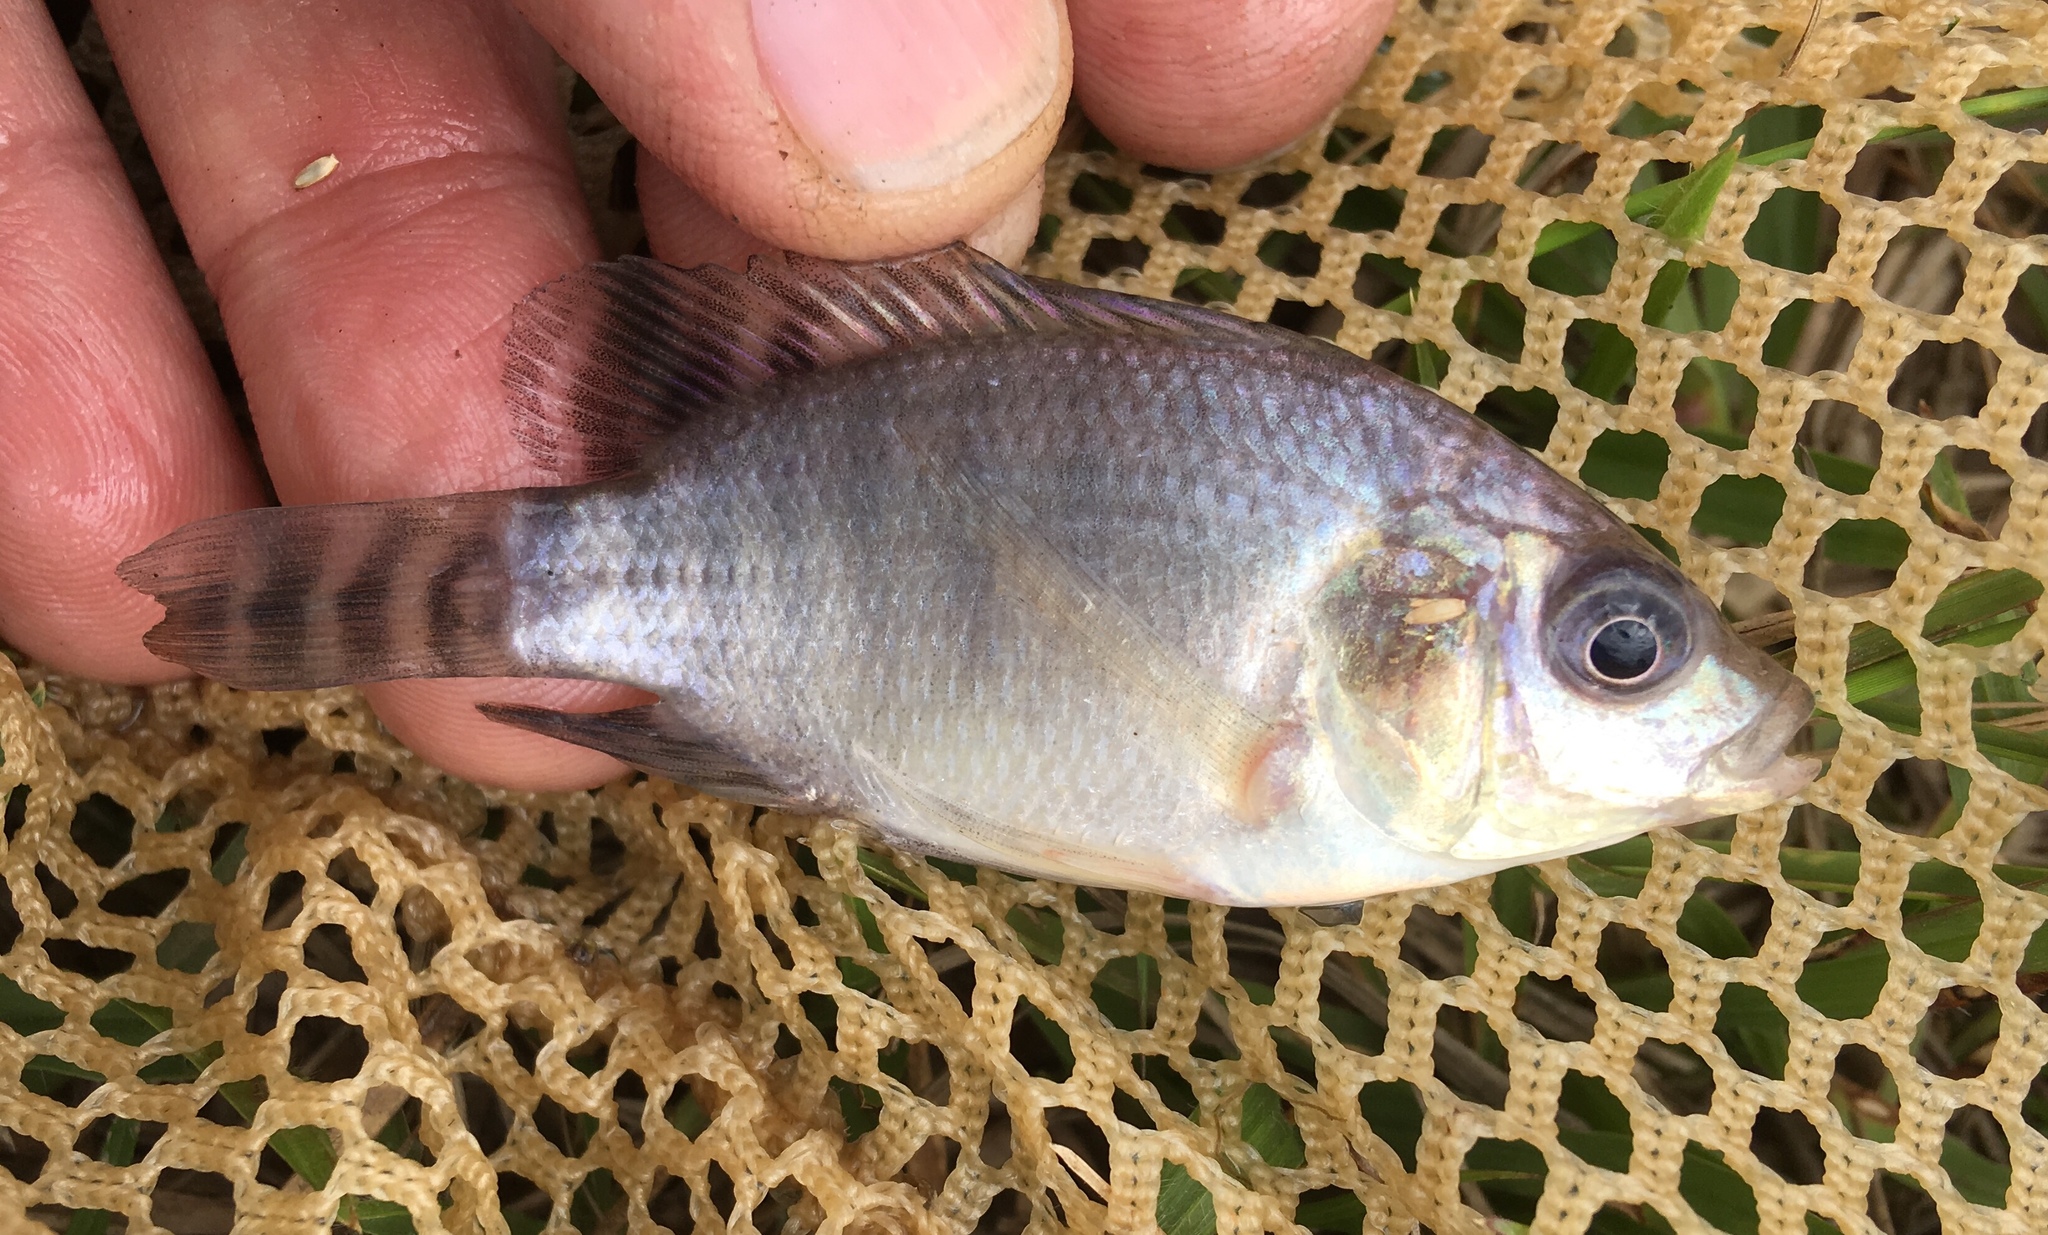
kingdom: Animalia
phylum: Chordata
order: Perciformes
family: Cichlidae
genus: Oreochromis
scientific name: Oreochromis niloticus
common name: Nile tilapia
